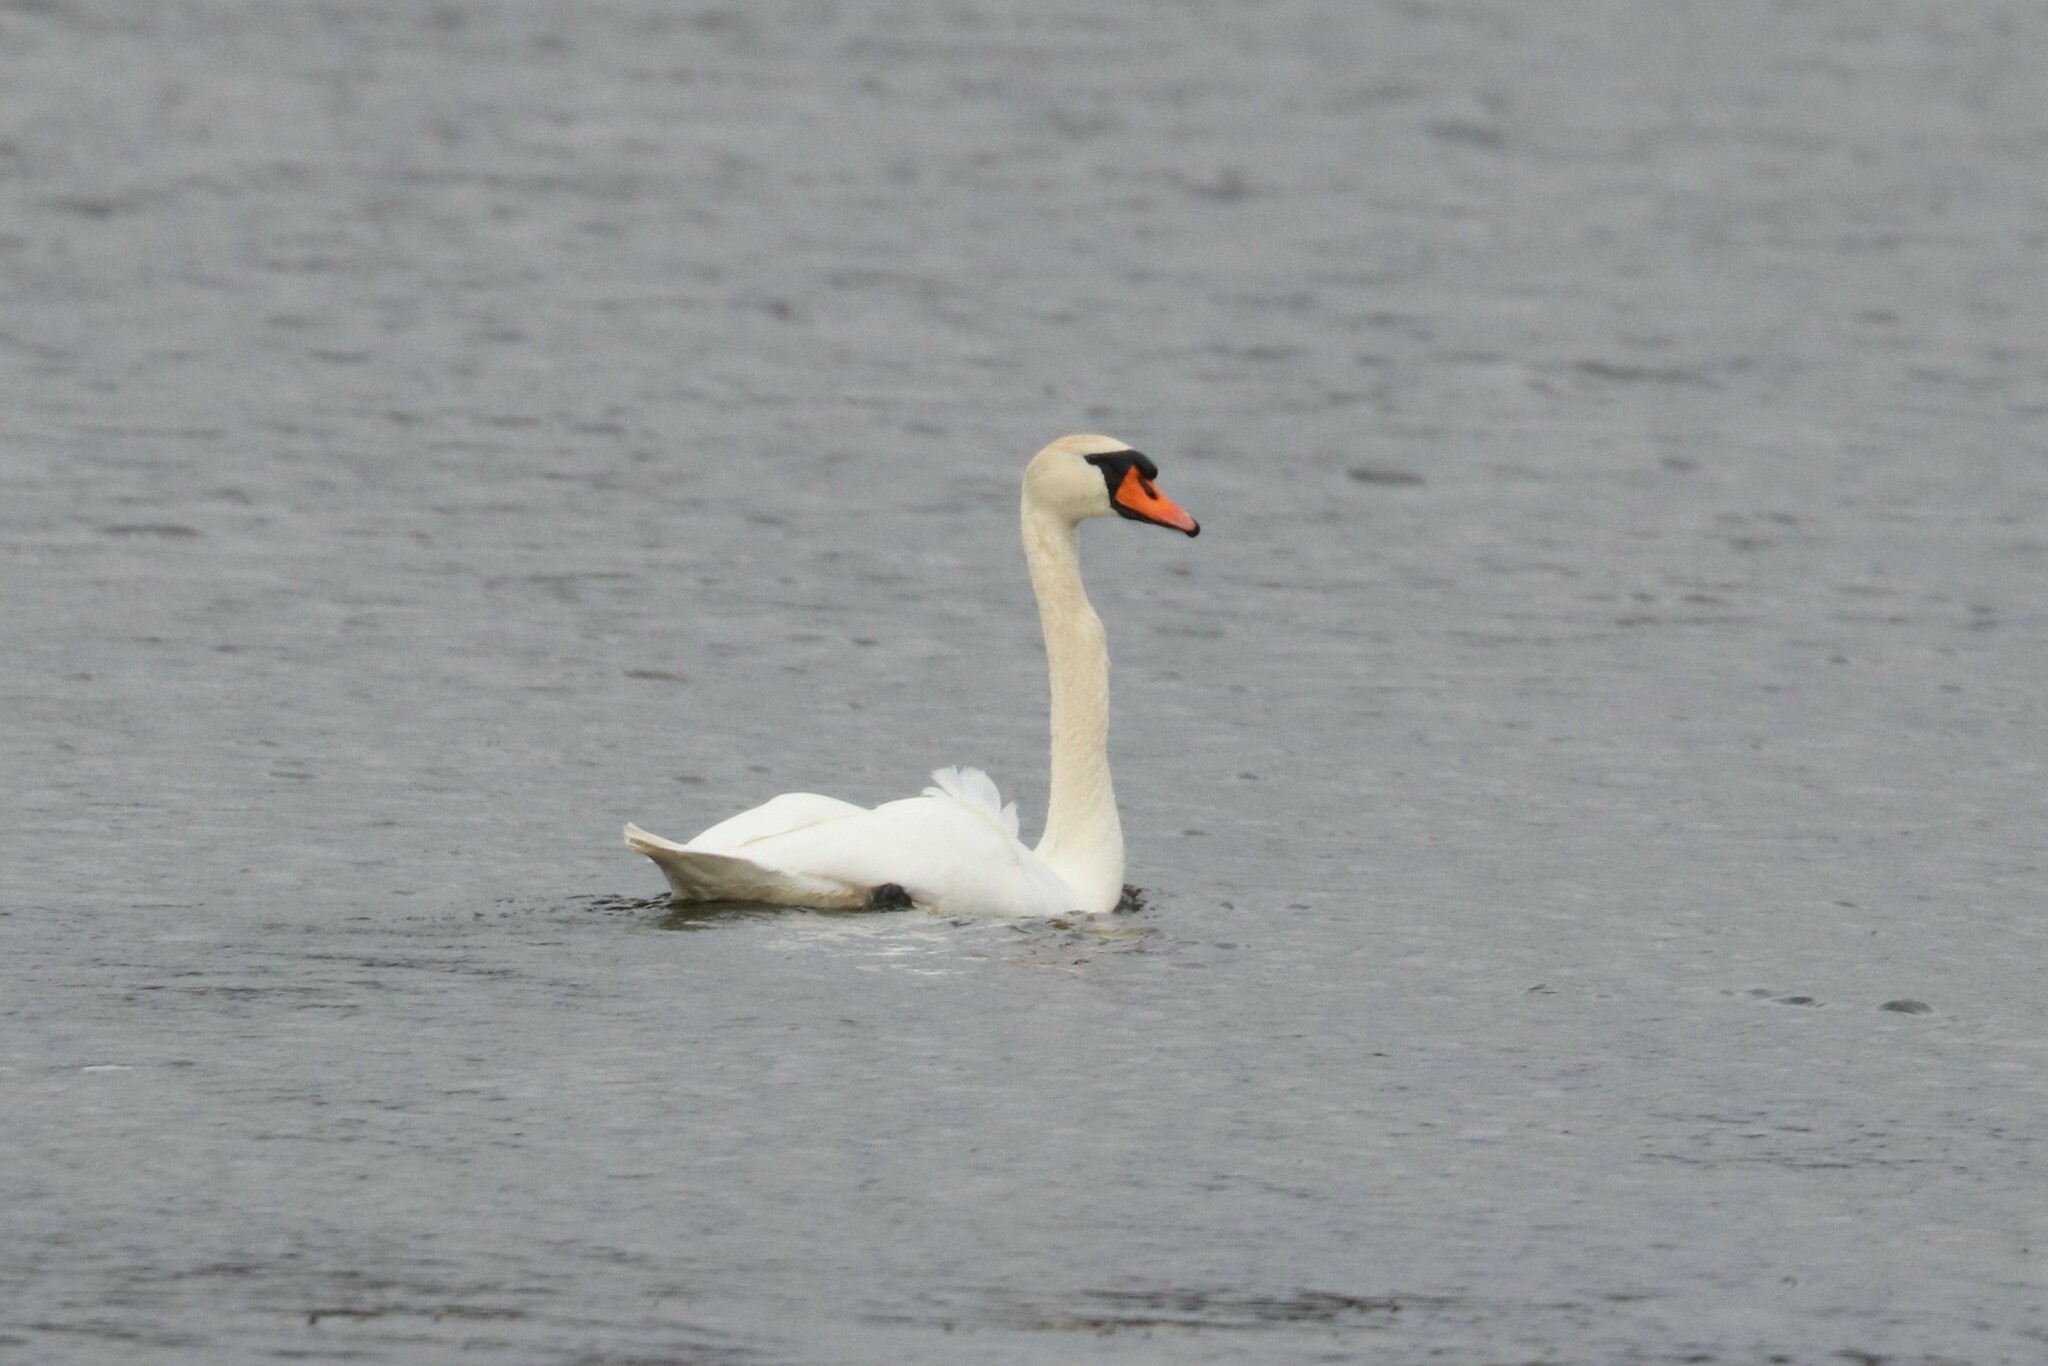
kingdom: Animalia
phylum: Chordata
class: Aves
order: Anseriformes
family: Anatidae
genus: Cygnus
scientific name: Cygnus olor
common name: Mute swan
